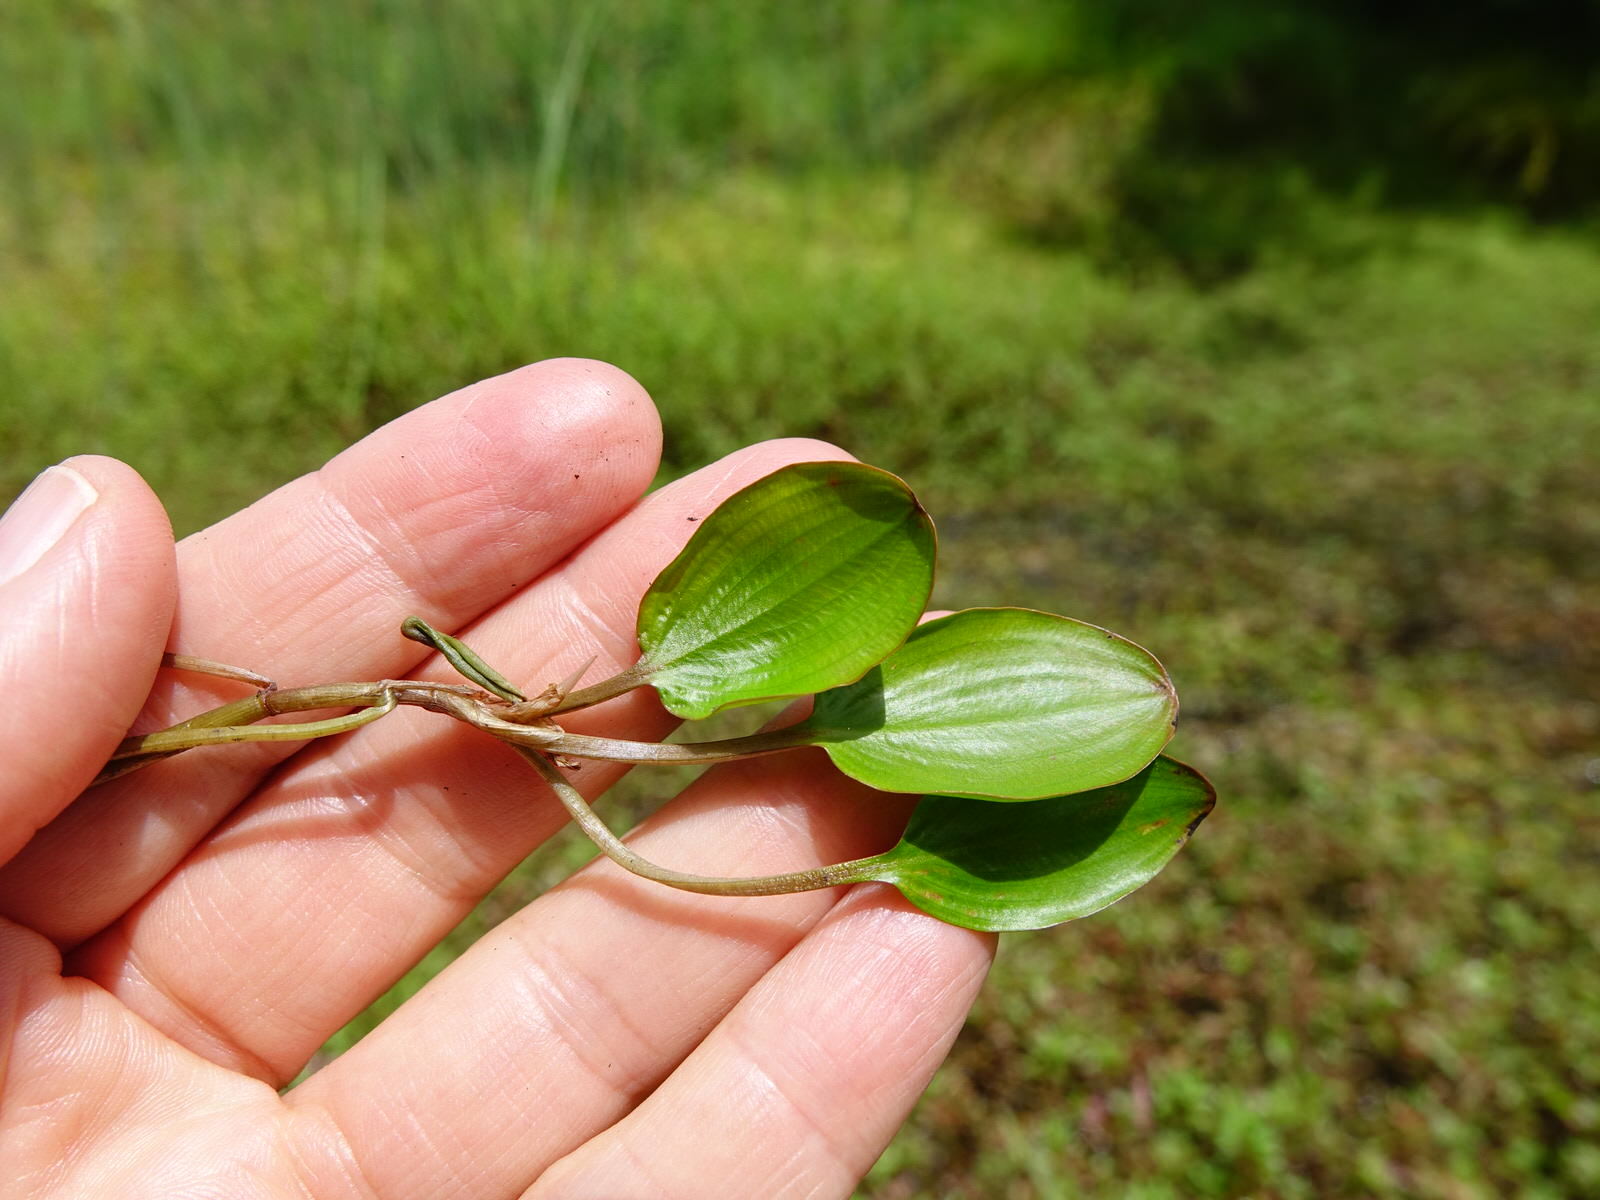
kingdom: Plantae
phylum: Tracheophyta
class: Liliopsida
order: Alismatales
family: Potamogetonaceae
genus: Potamogeton
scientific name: Potamogeton cheesemanii
